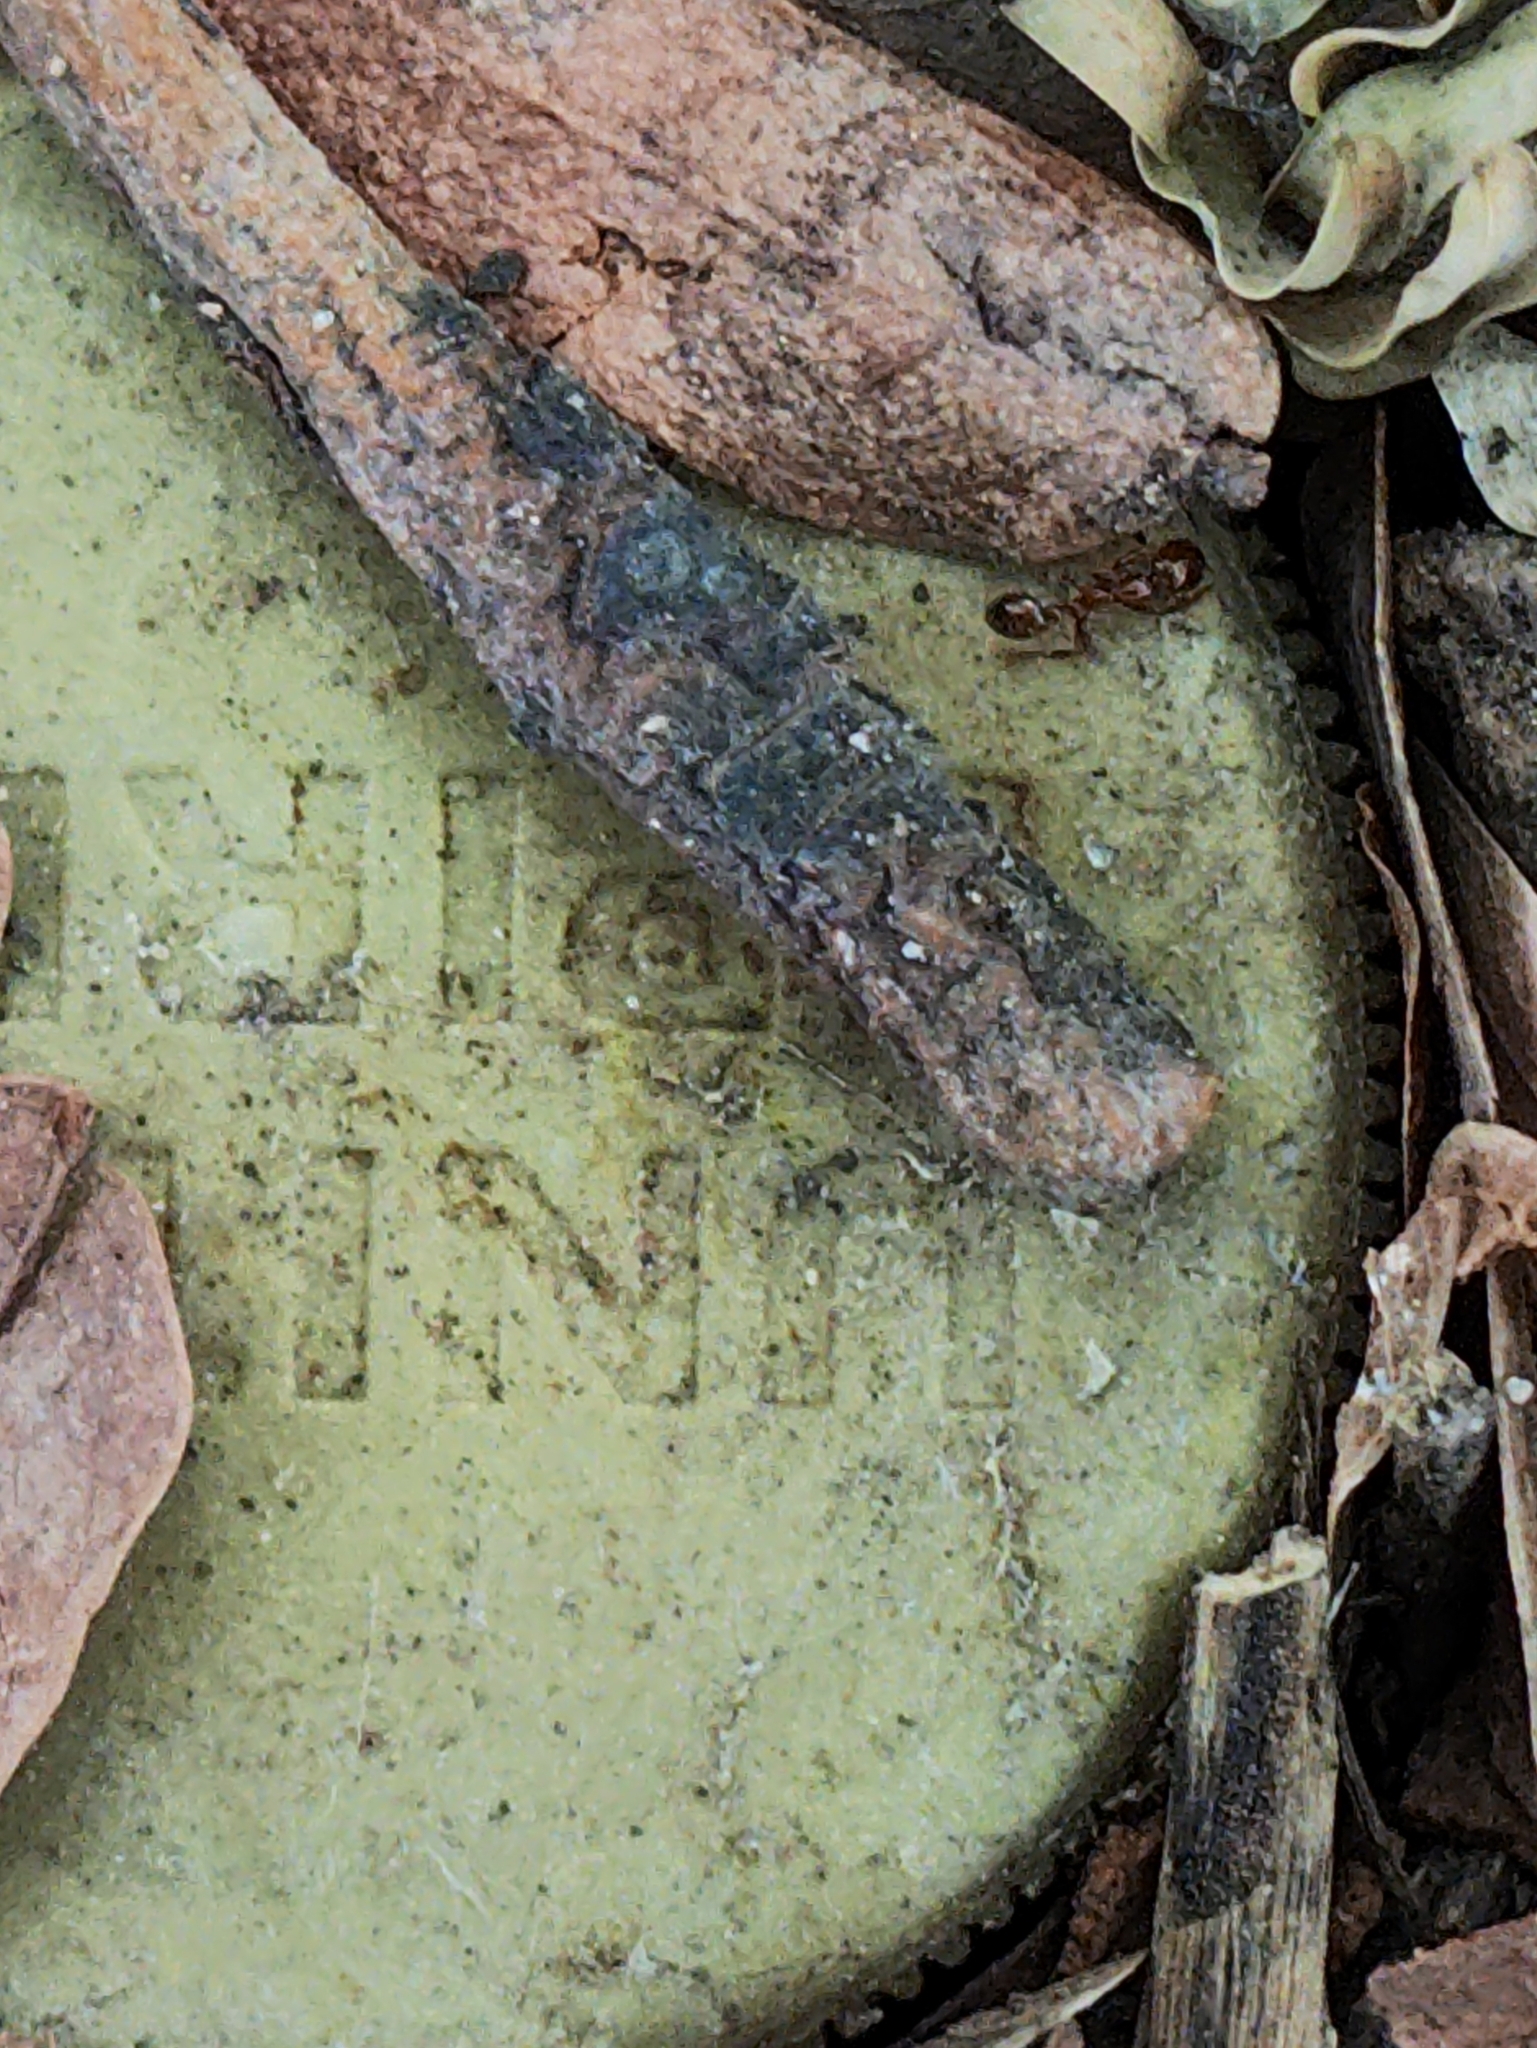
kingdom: Animalia
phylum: Arthropoda
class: Insecta
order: Hymenoptera
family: Formicidae
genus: Solenopsis
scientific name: Solenopsis geminata
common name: Tropical fire ant
